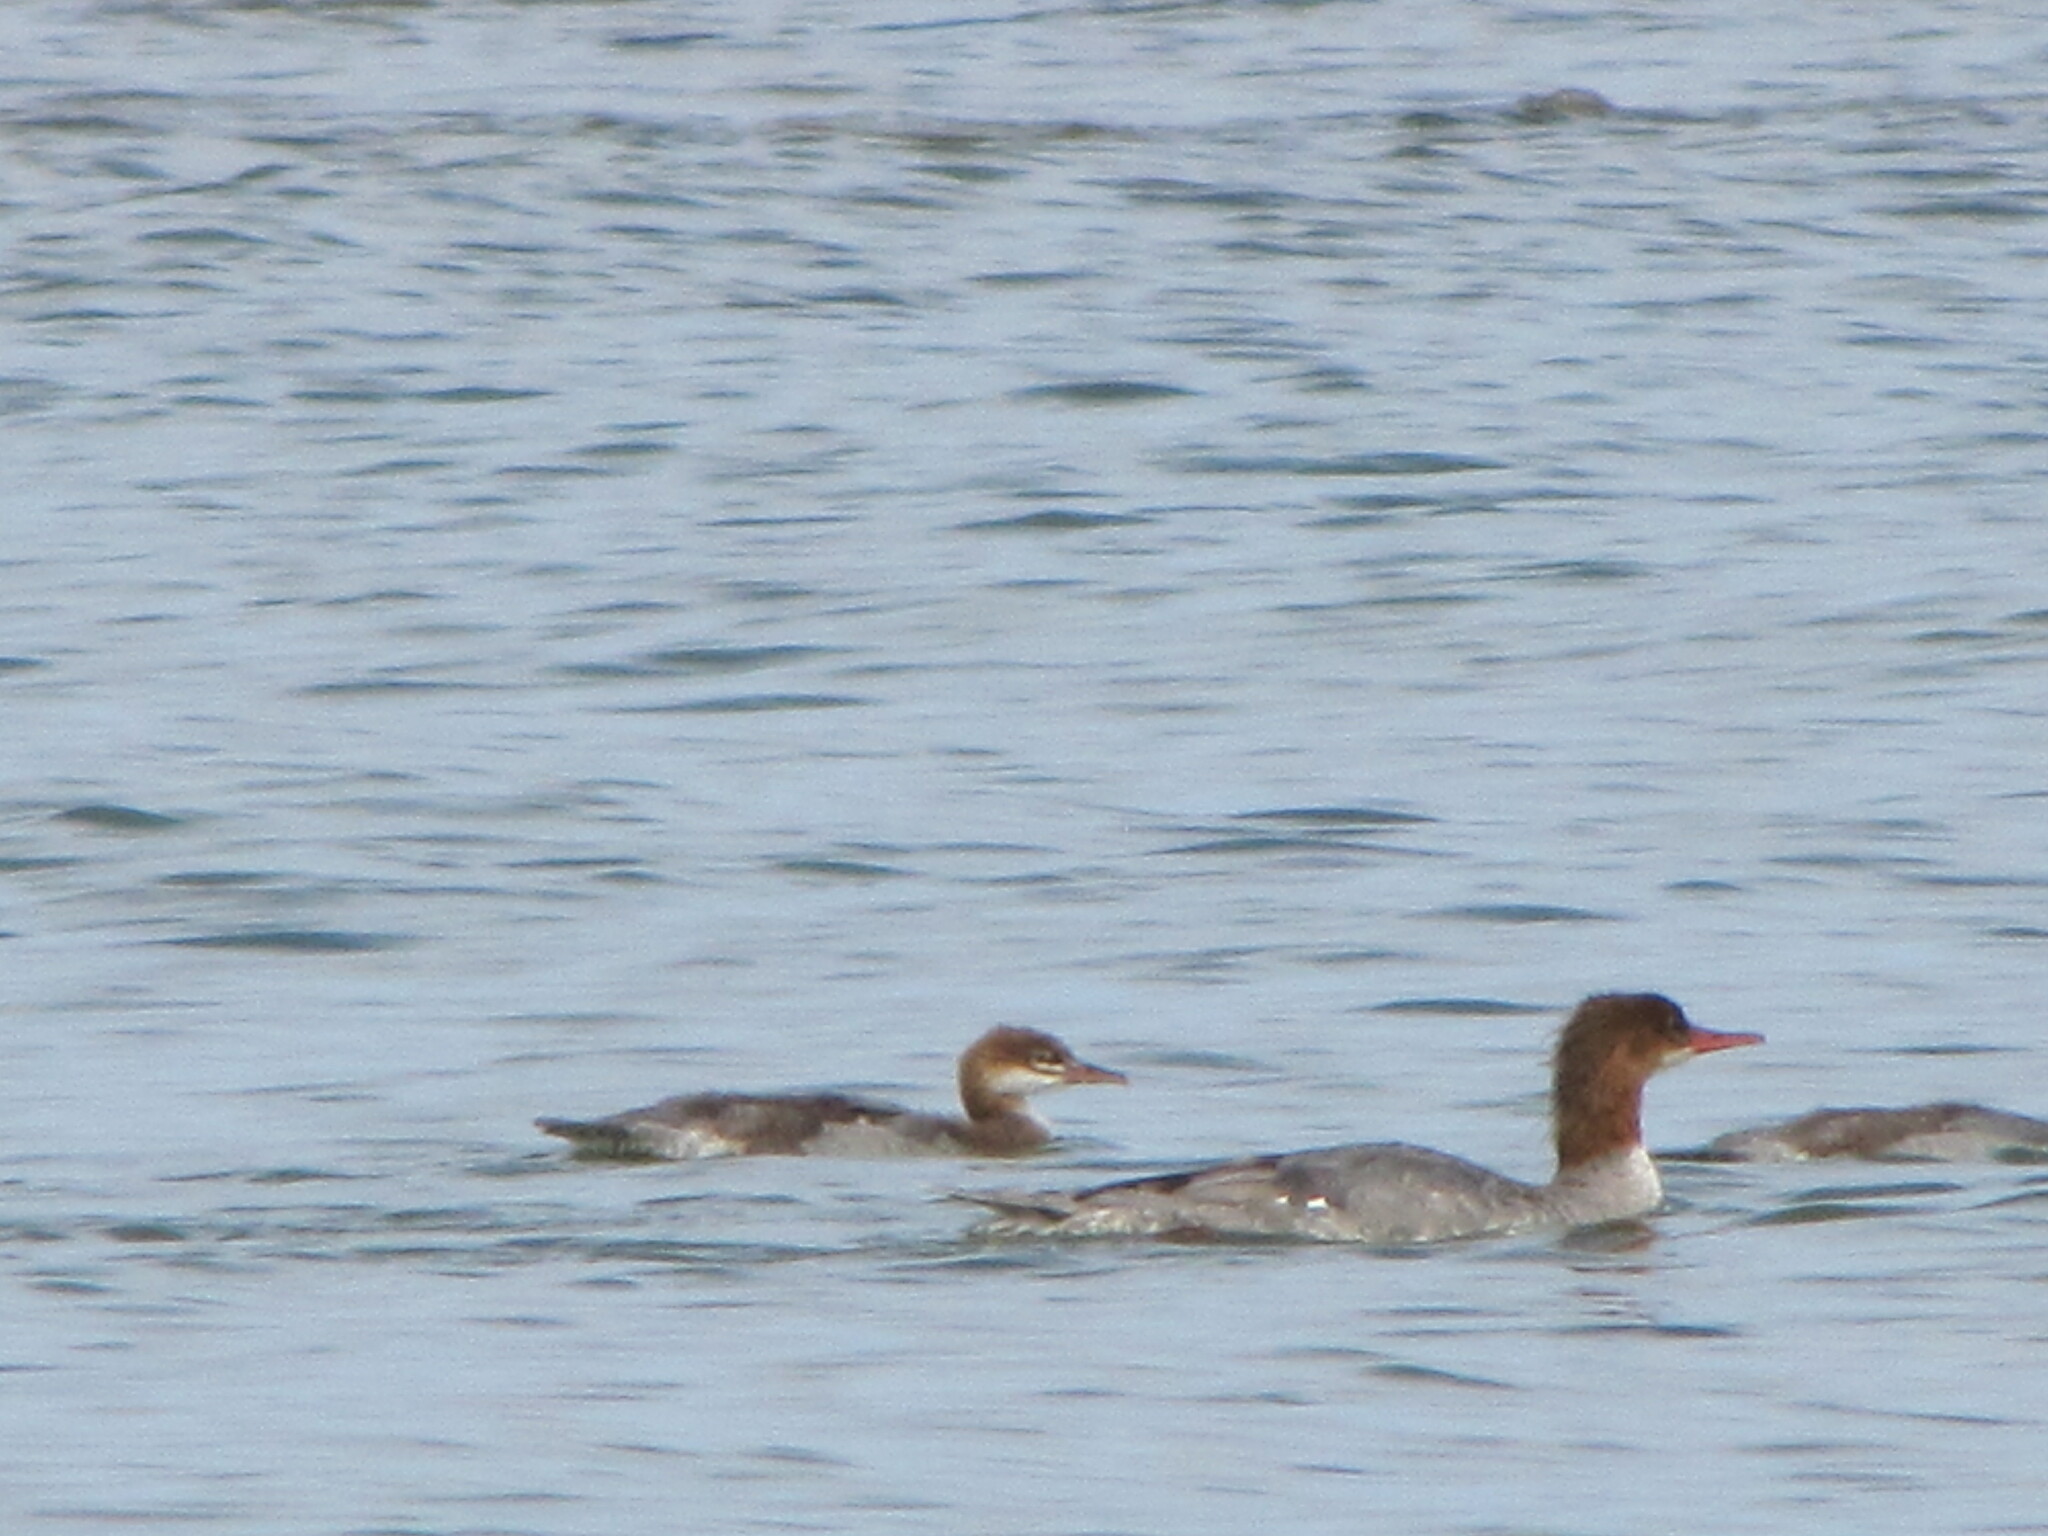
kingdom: Animalia
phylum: Chordata
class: Aves
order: Anseriformes
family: Anatidae
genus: Mergus
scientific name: Mergus merganser
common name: Common merganser
